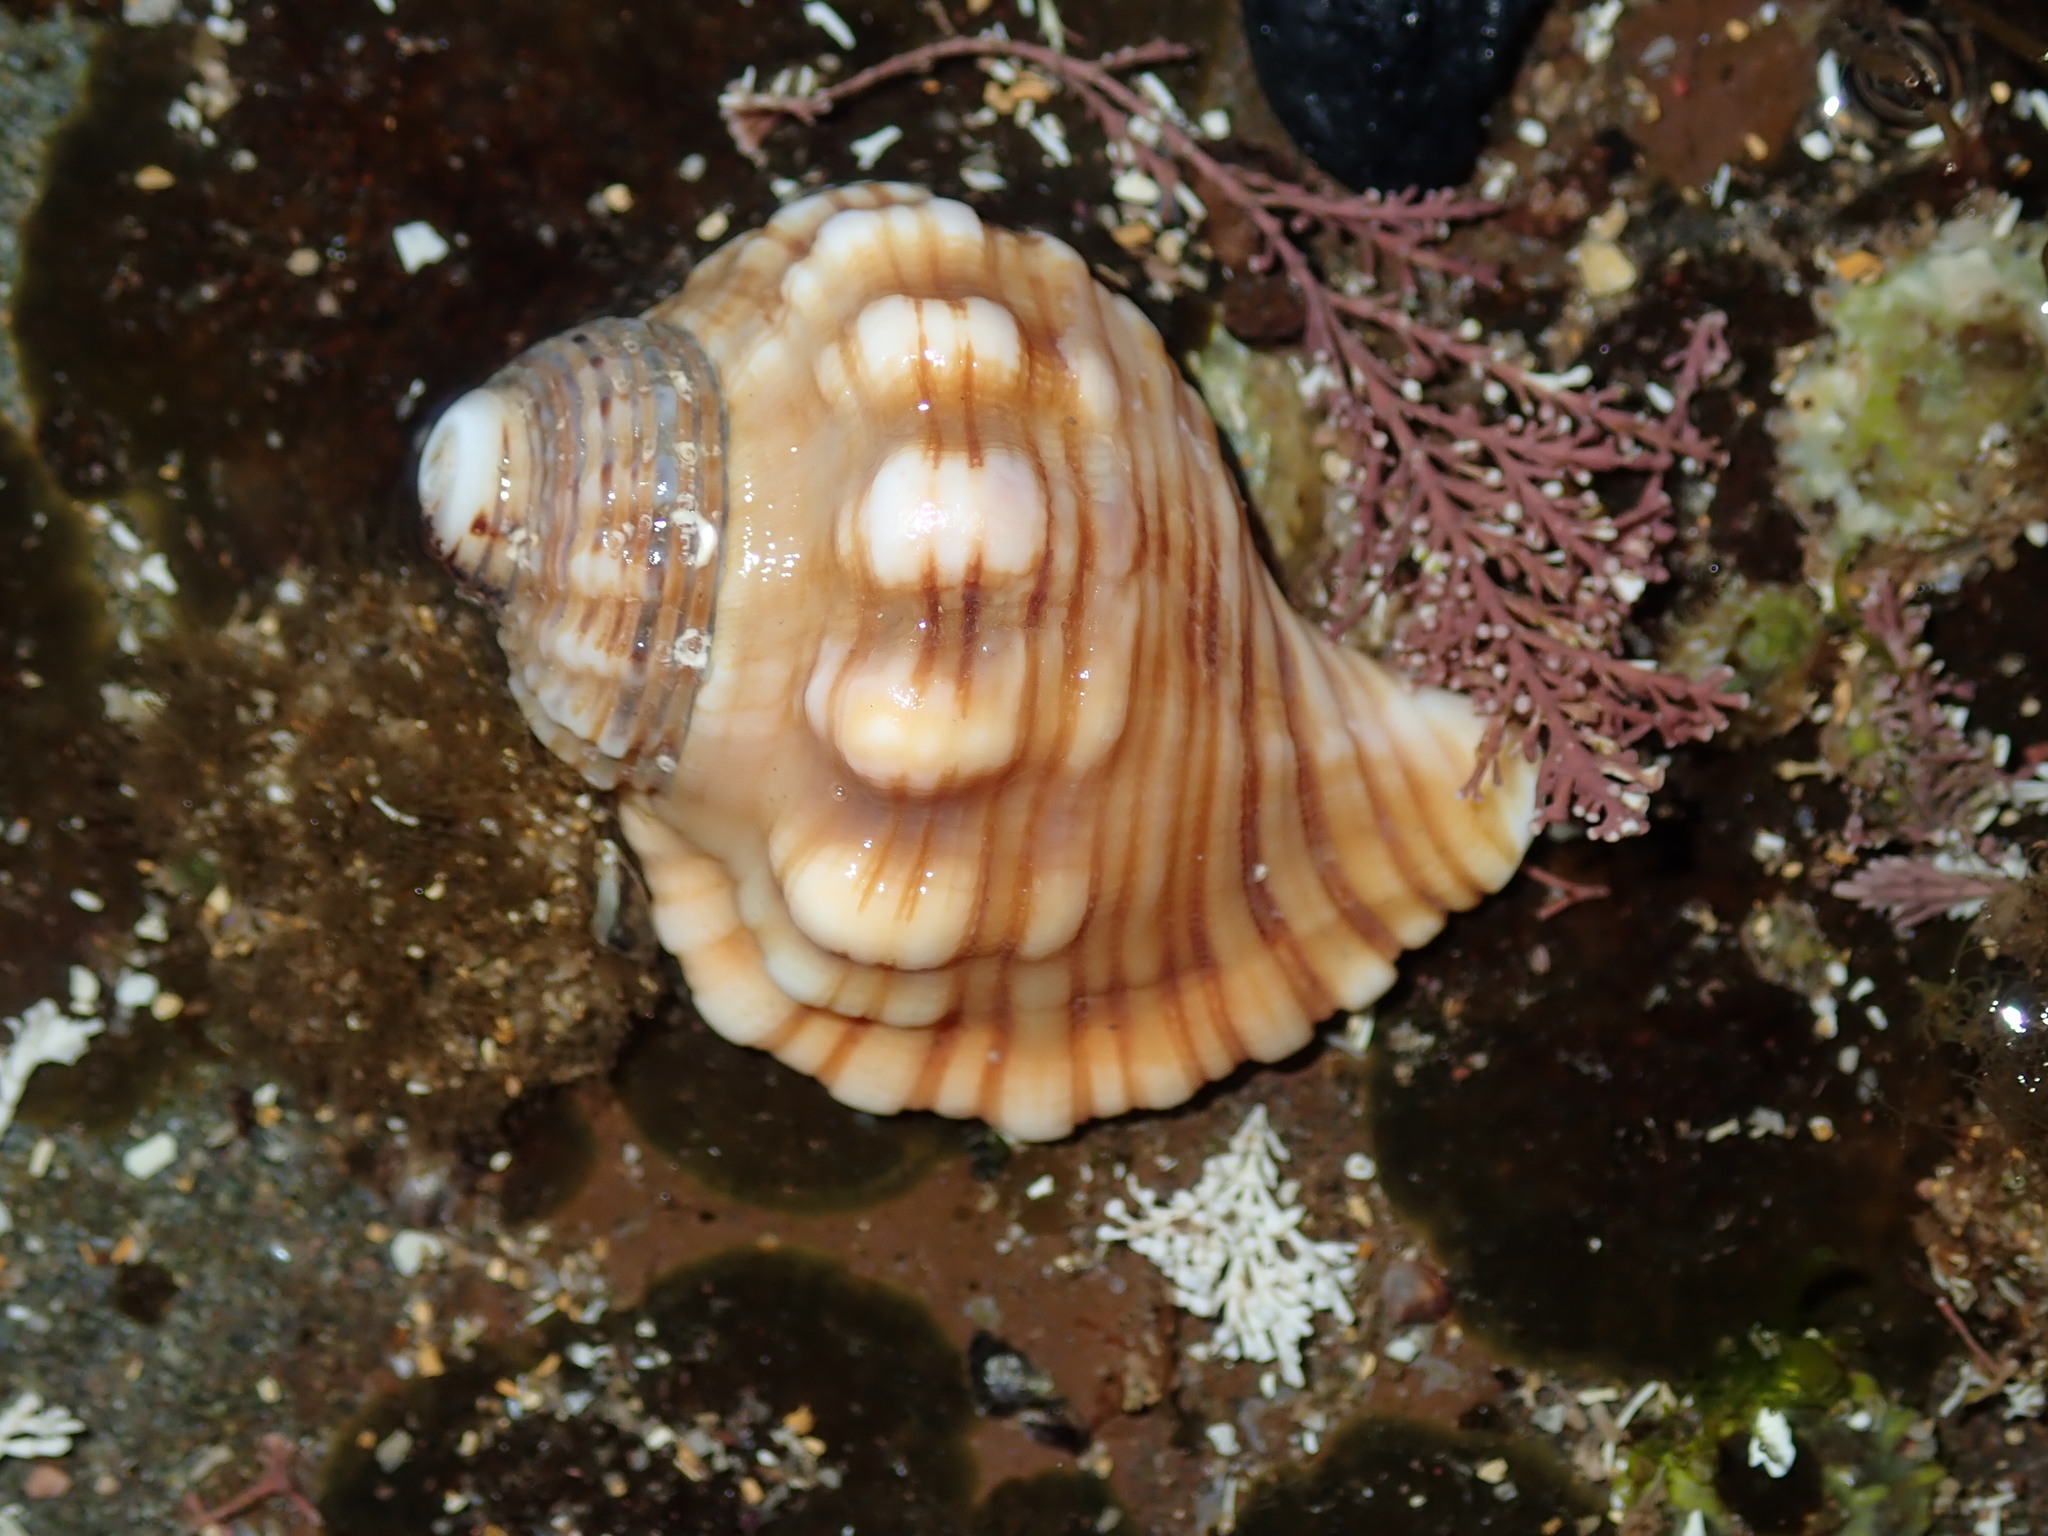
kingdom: Animalia
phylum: Mollusca
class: Gastropoda
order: Littorinimorpha
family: Cymatiidae
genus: Cabestana
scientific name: Cabestana spengleri
